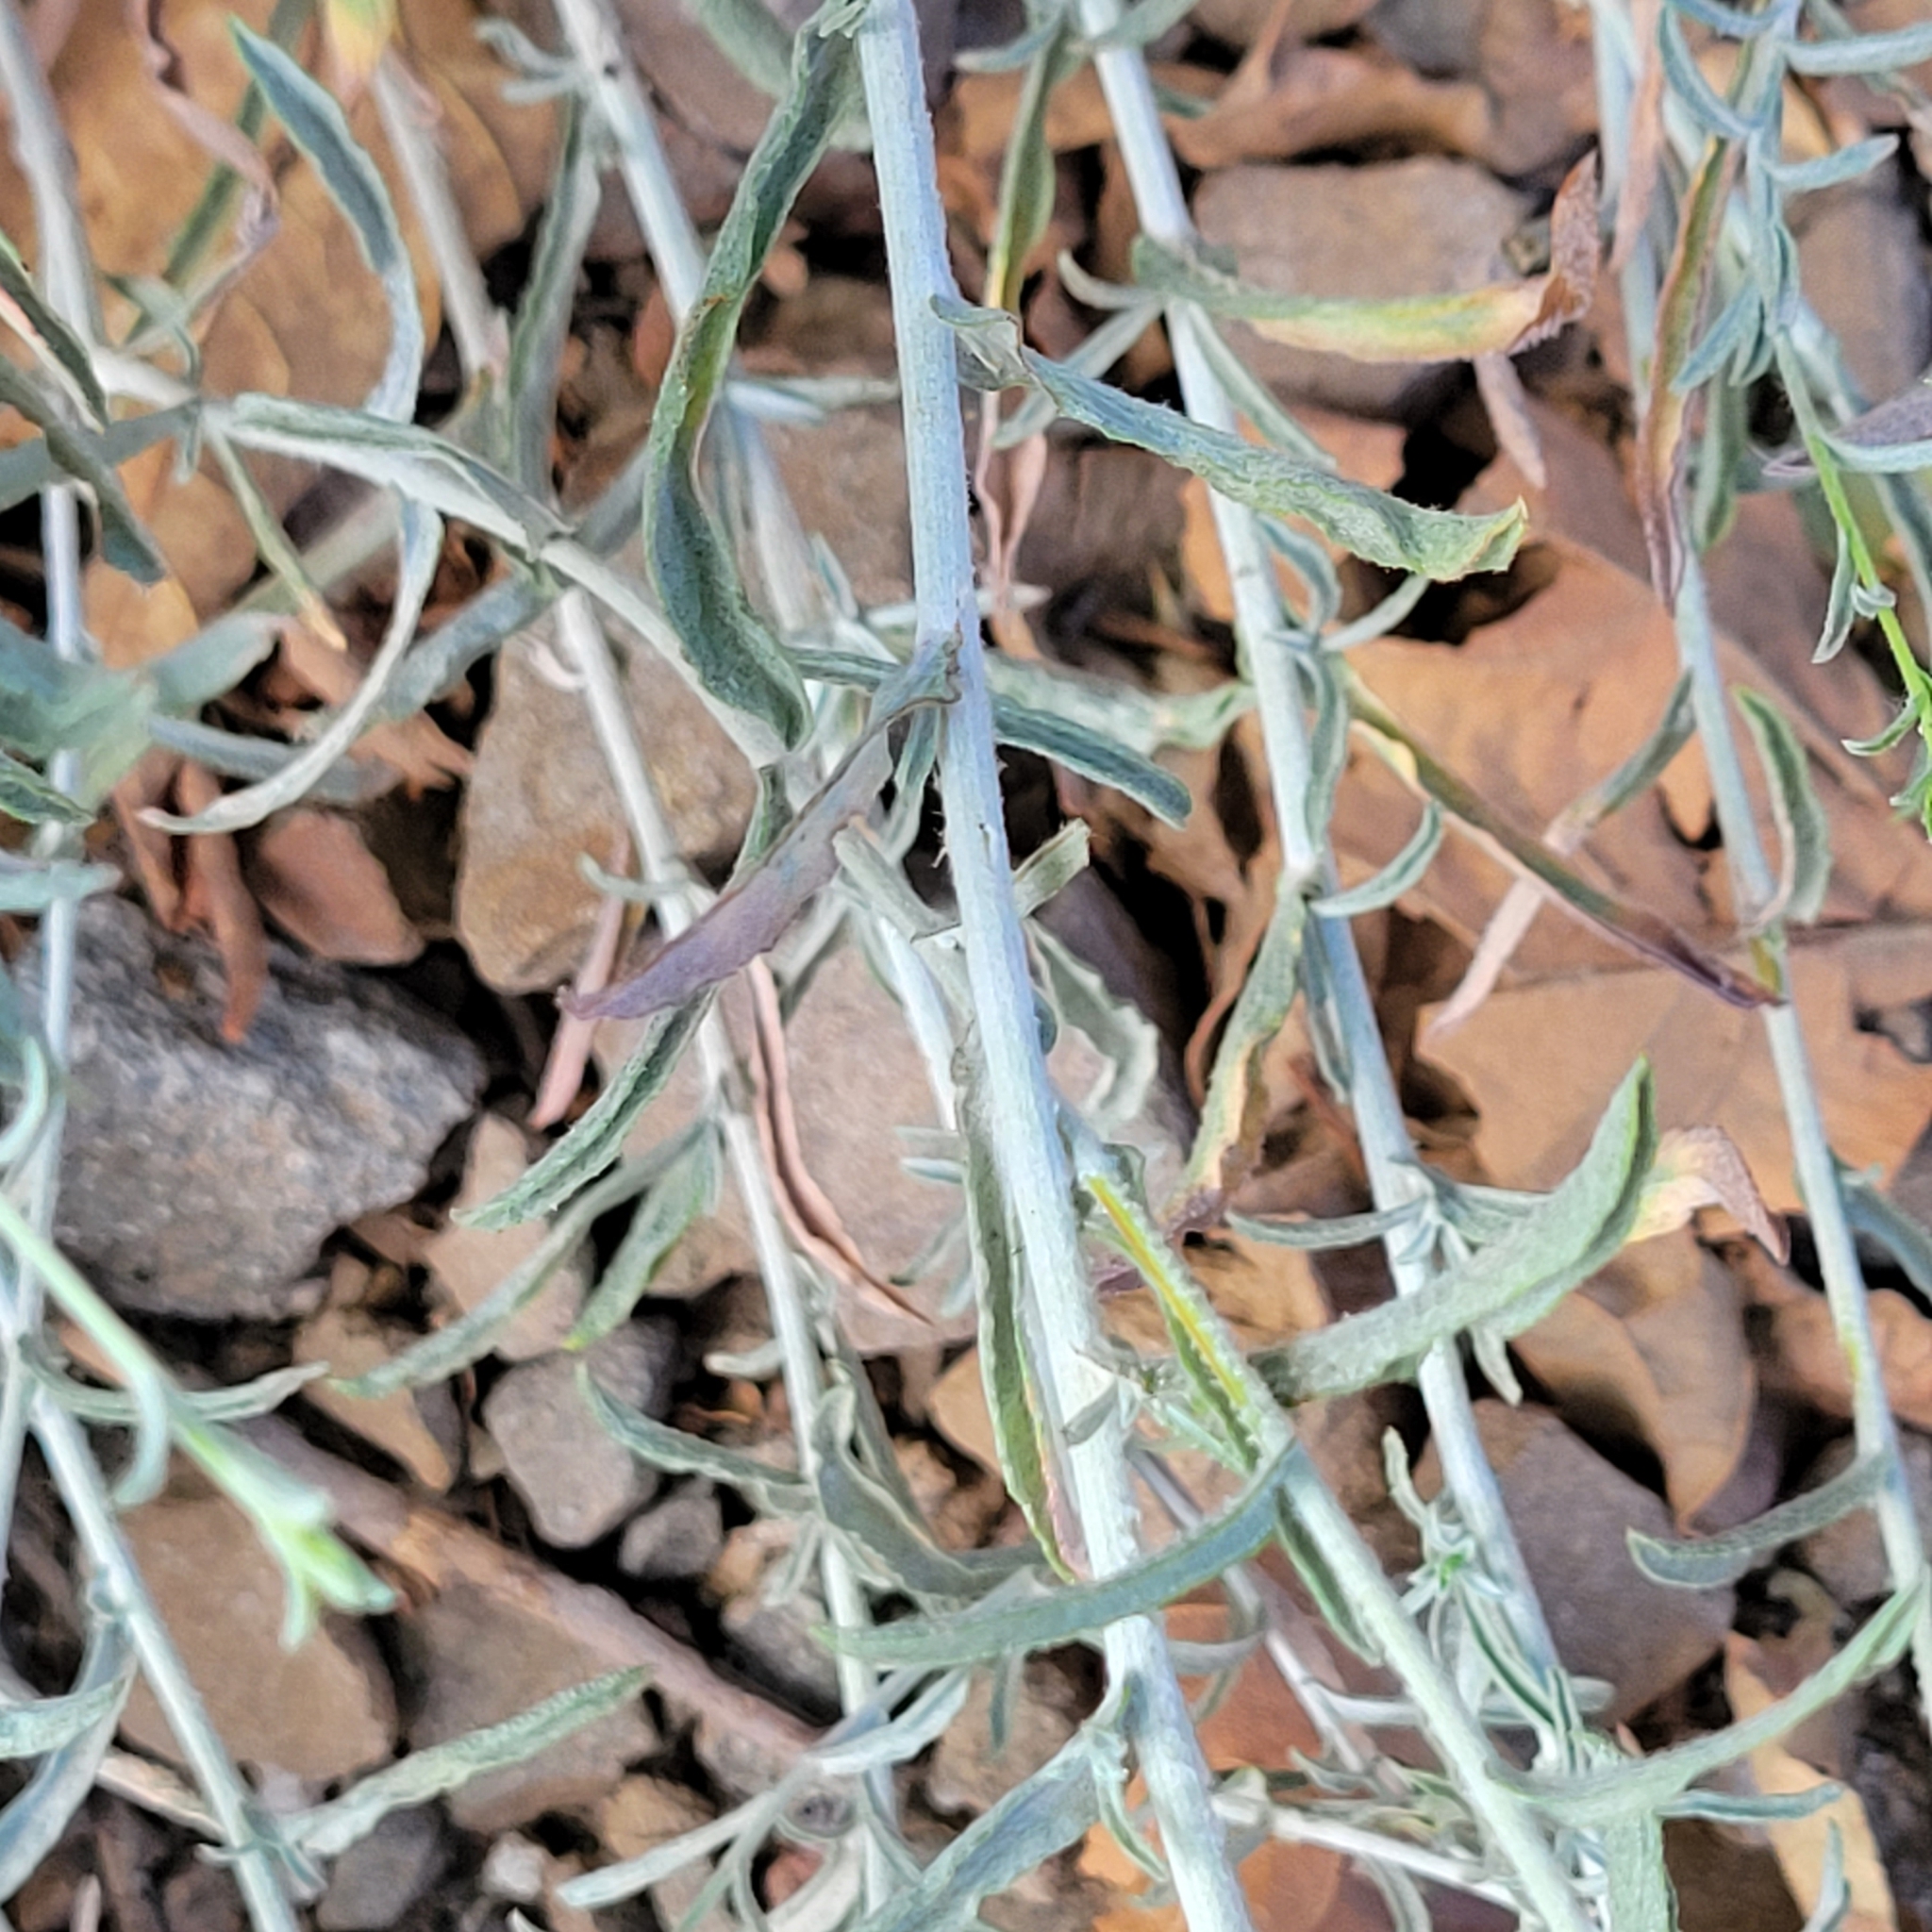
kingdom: Plantae
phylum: Tracheophyta
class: Magnoliopsida
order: Asterales
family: Asteraceae
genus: Corethrogyne
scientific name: Corethrogyne filaginifolia
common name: Sand-aster
